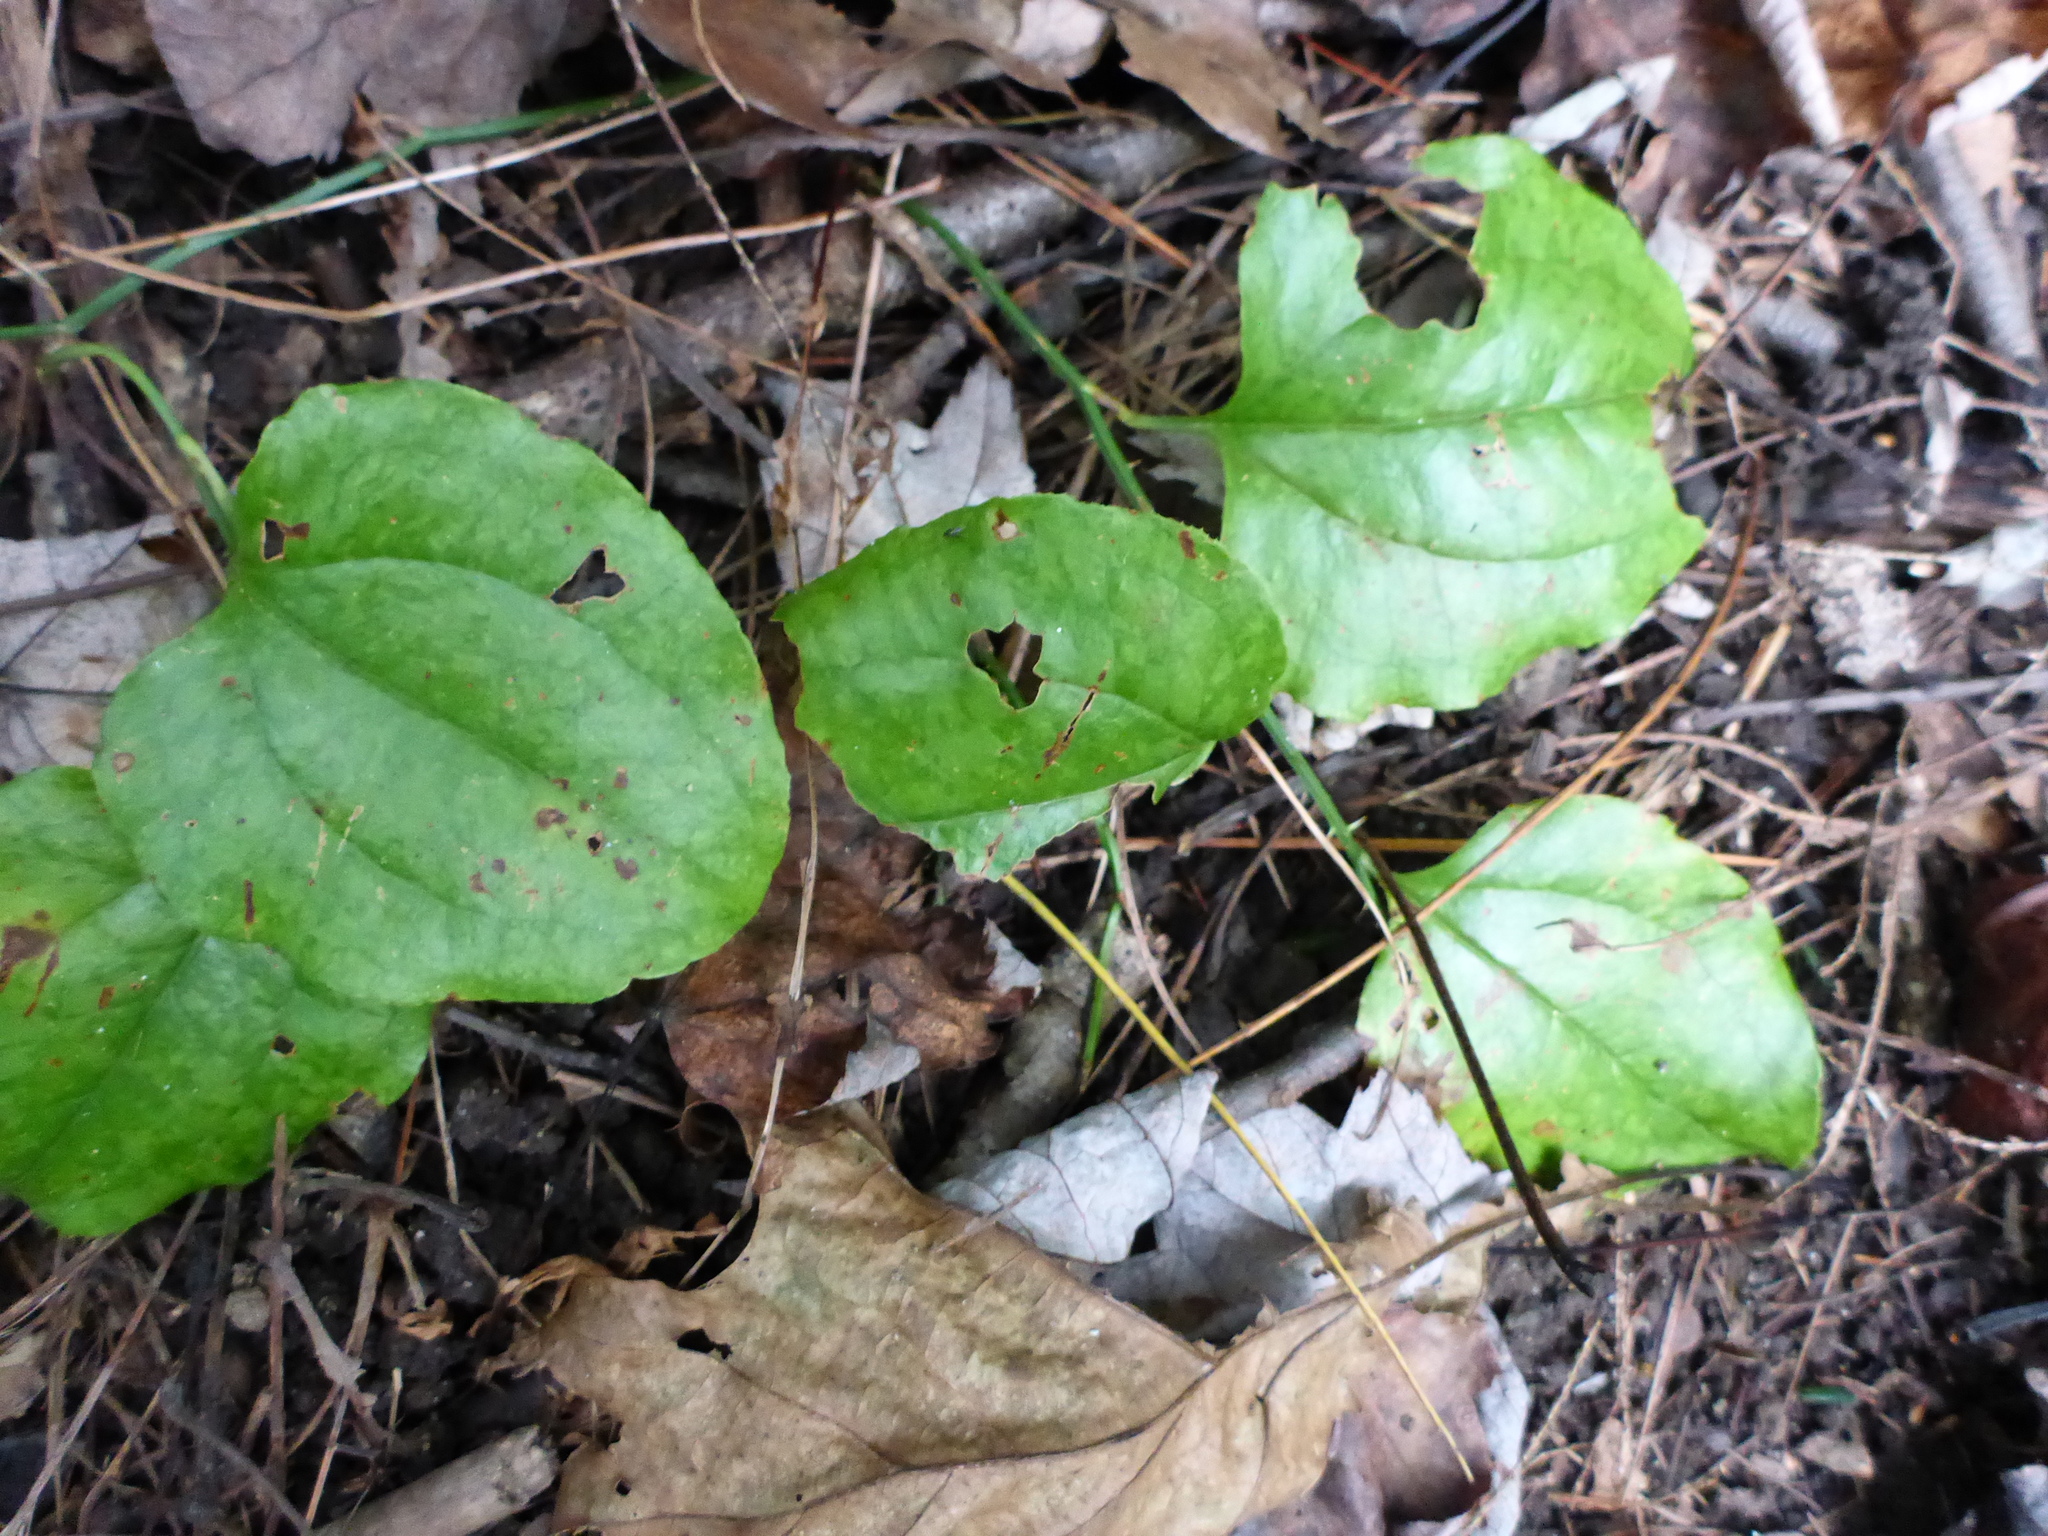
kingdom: Plantae
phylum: Tracheophyta
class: Liliopsida
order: Liliales
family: Smilacaceae
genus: Smilax
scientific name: Smilax rotundifolia
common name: Bullbriar
